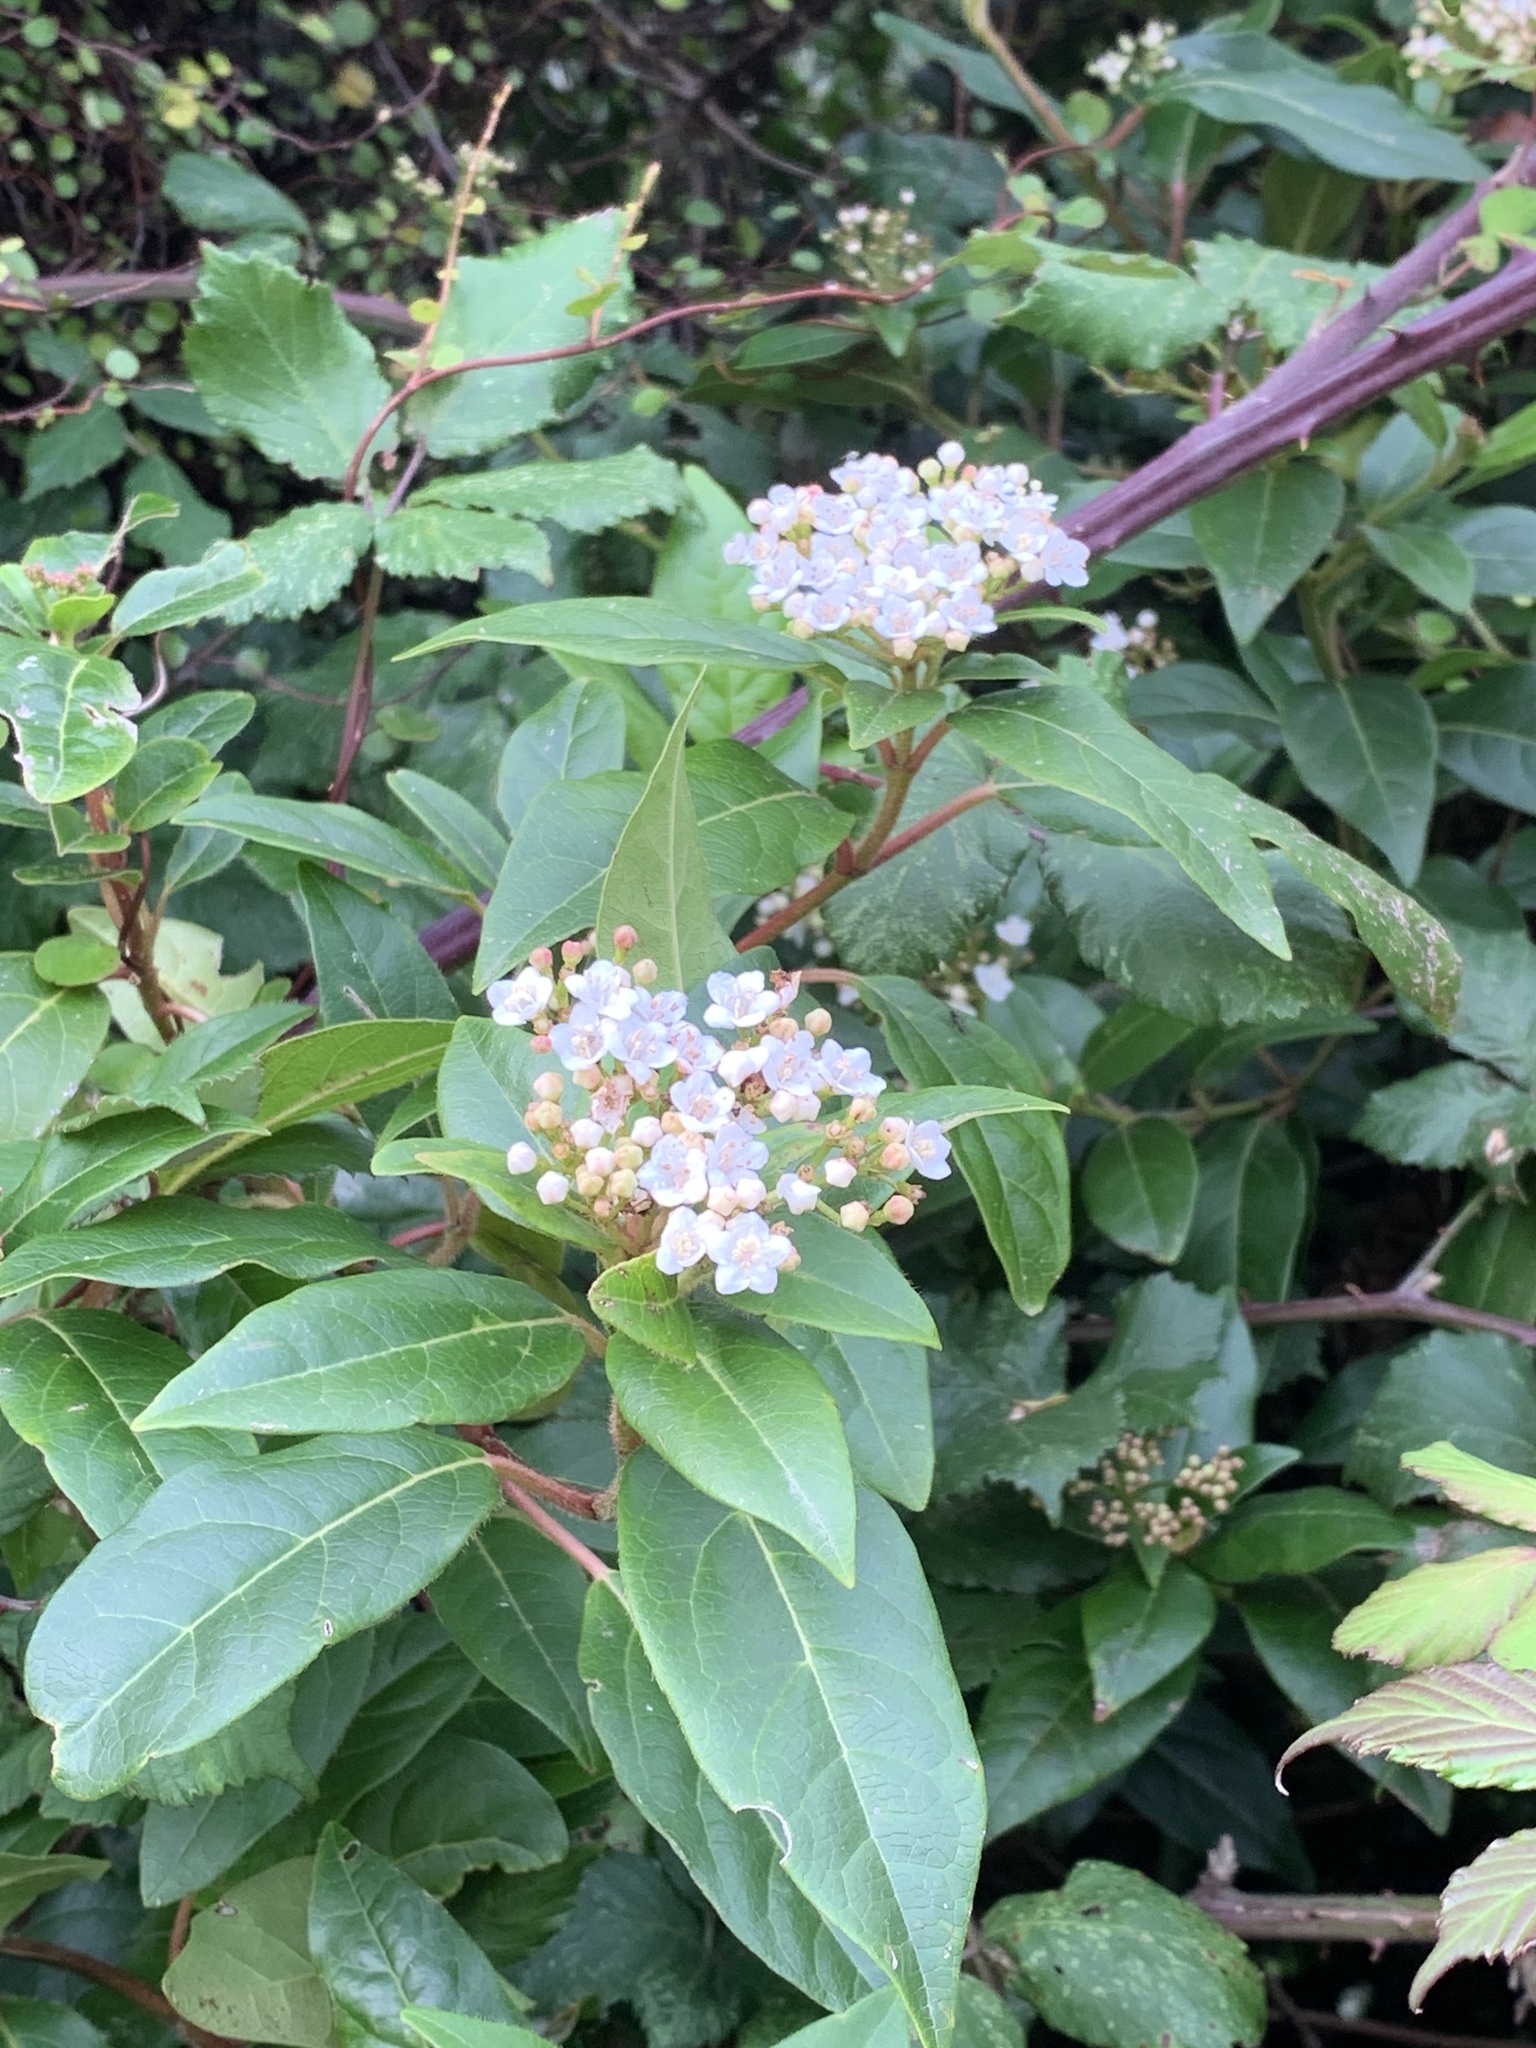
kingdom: Plantae
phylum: Tracheophyta
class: Magnoliopsida
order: Dipsacales
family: Viburnaceae
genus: Viburnum
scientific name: Viburnum tinus
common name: Laurustinus
